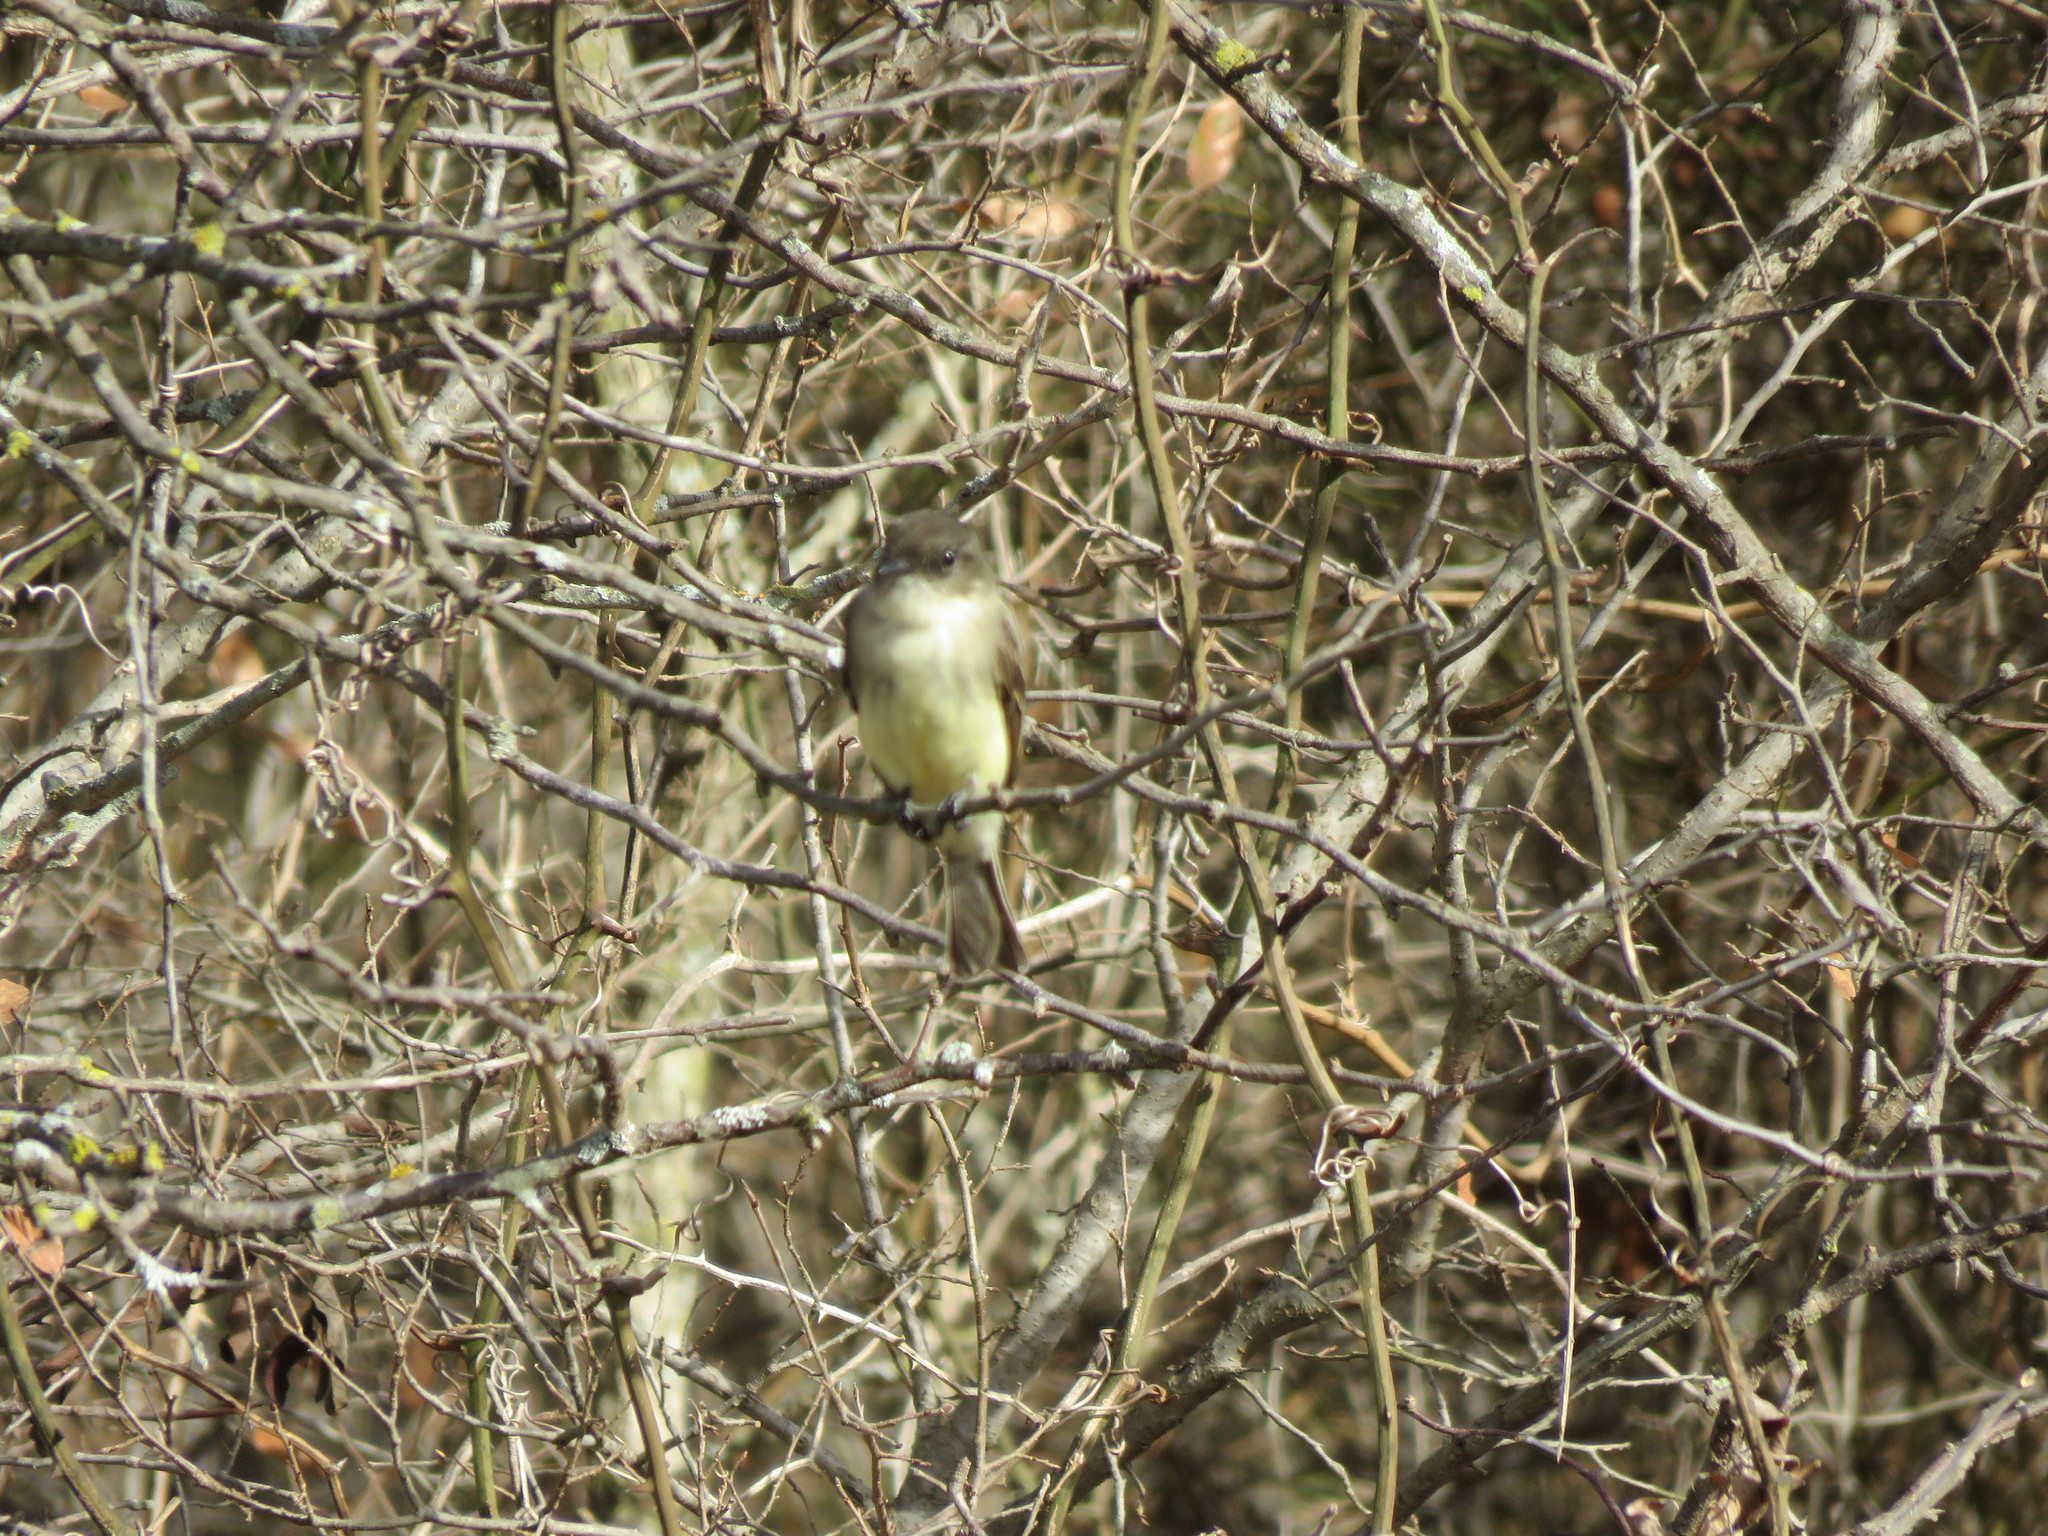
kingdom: Animalia
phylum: Chordata
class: Aves
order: Passeriformes
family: Tyrannidae
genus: Sayornis
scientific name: Sayornis phoebe
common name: Eastern phoebe
